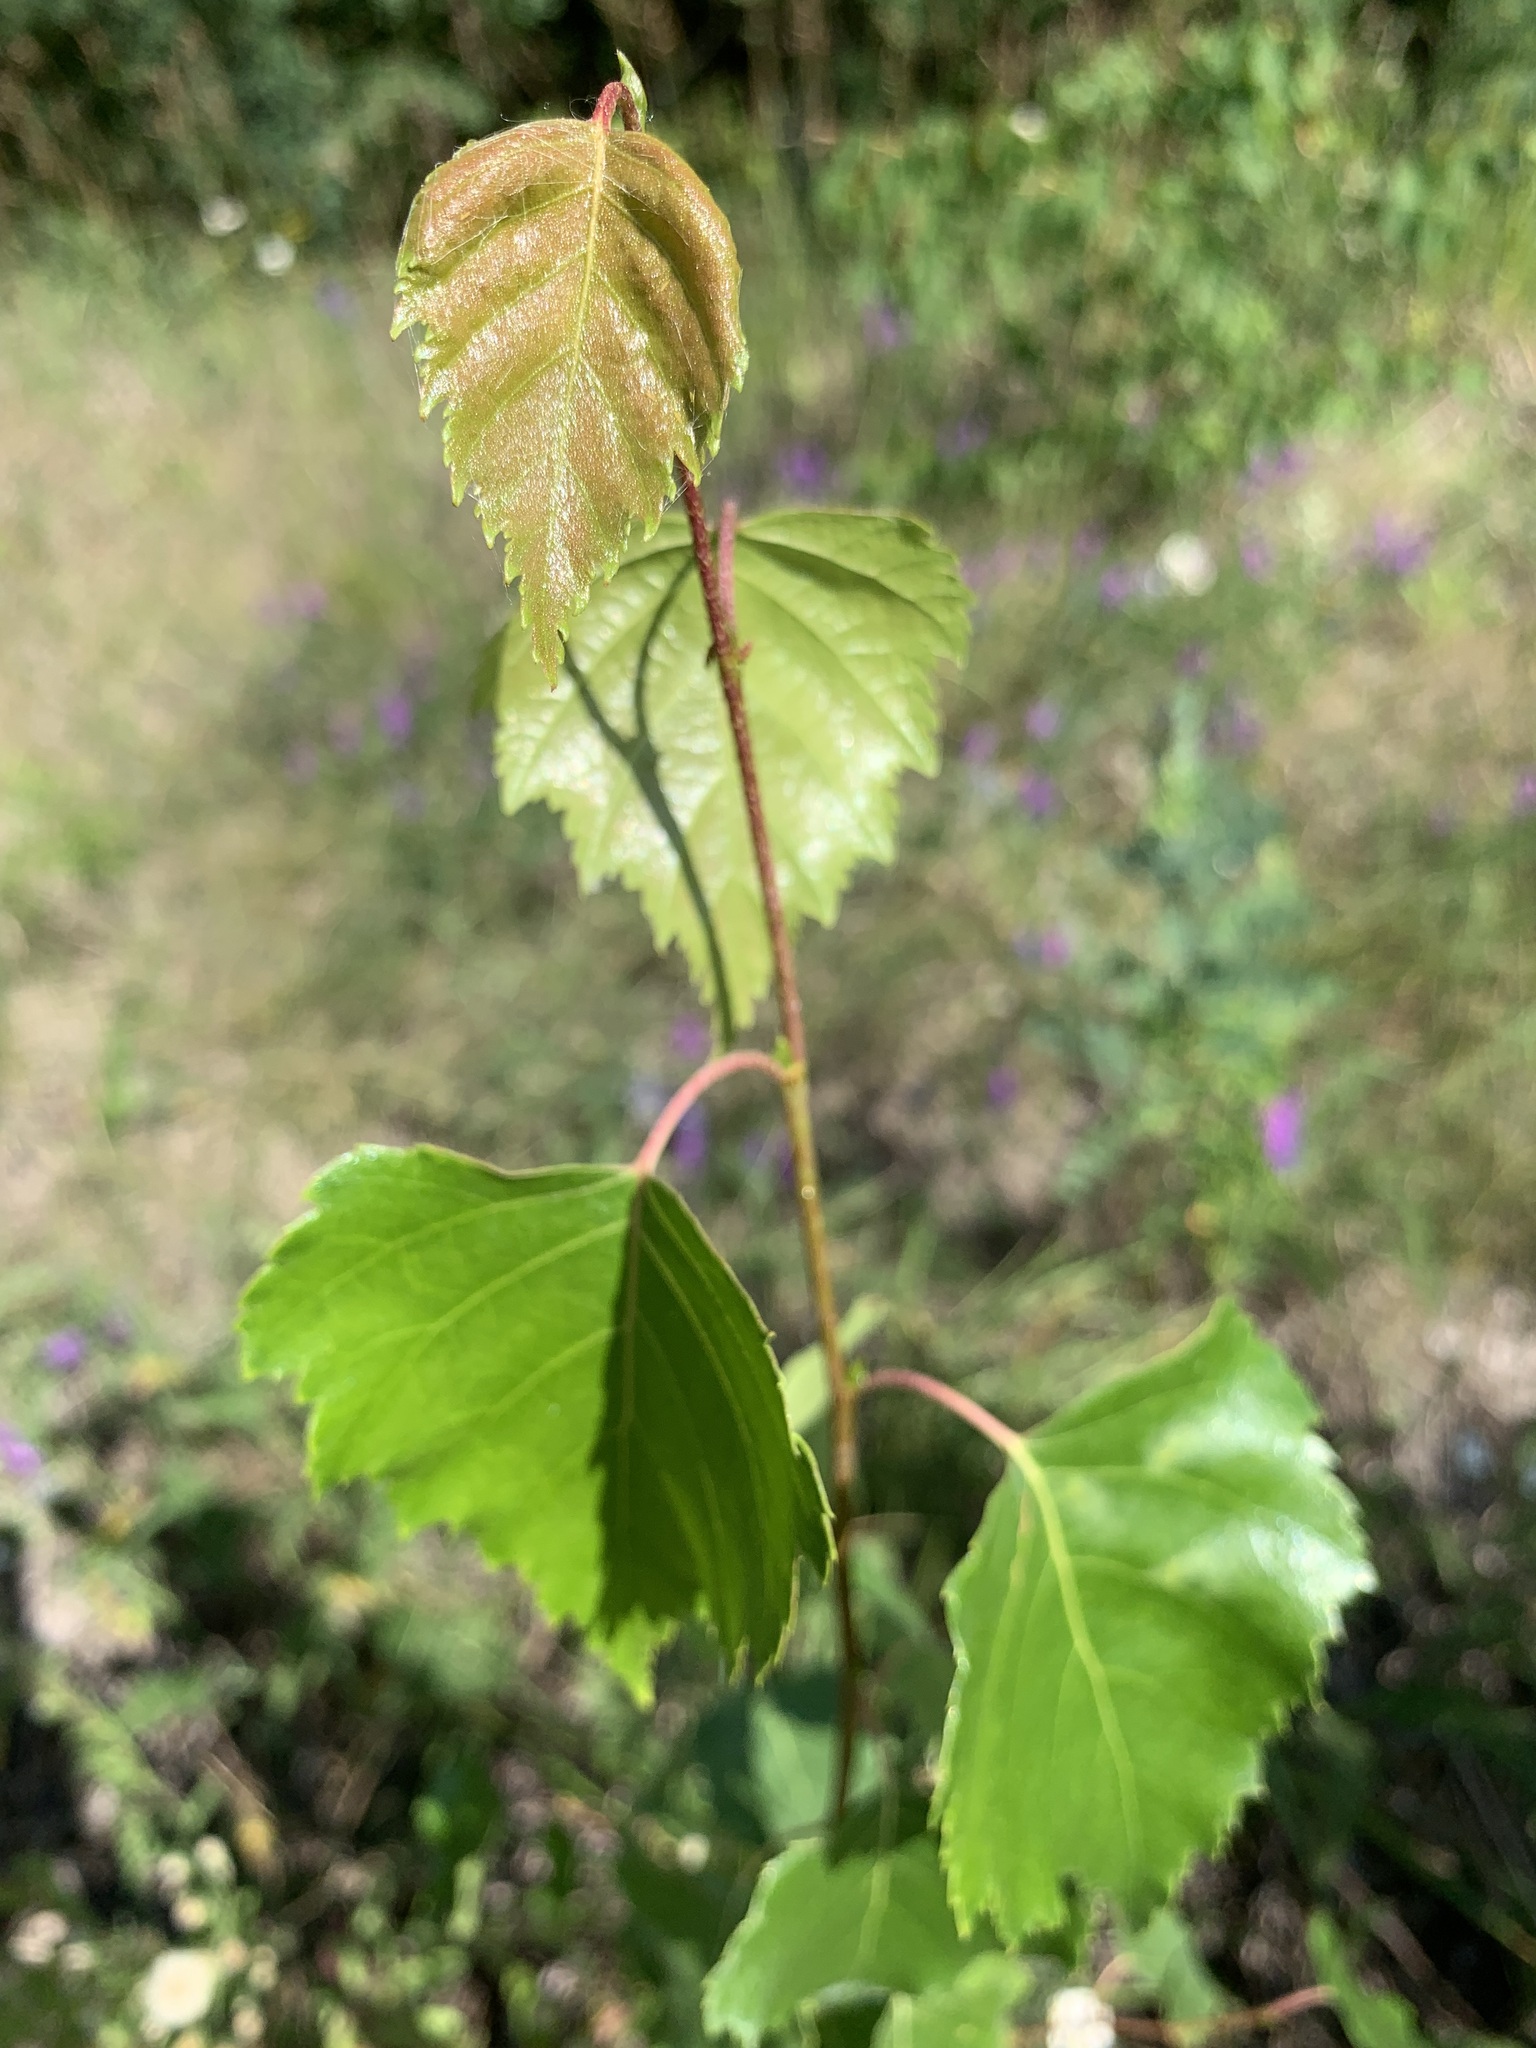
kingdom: Plantae
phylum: Tracheophyta
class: Magnoliopsida
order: Fagales
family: Betulaceae
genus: Betula
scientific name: Betula pendula
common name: Silver birch
